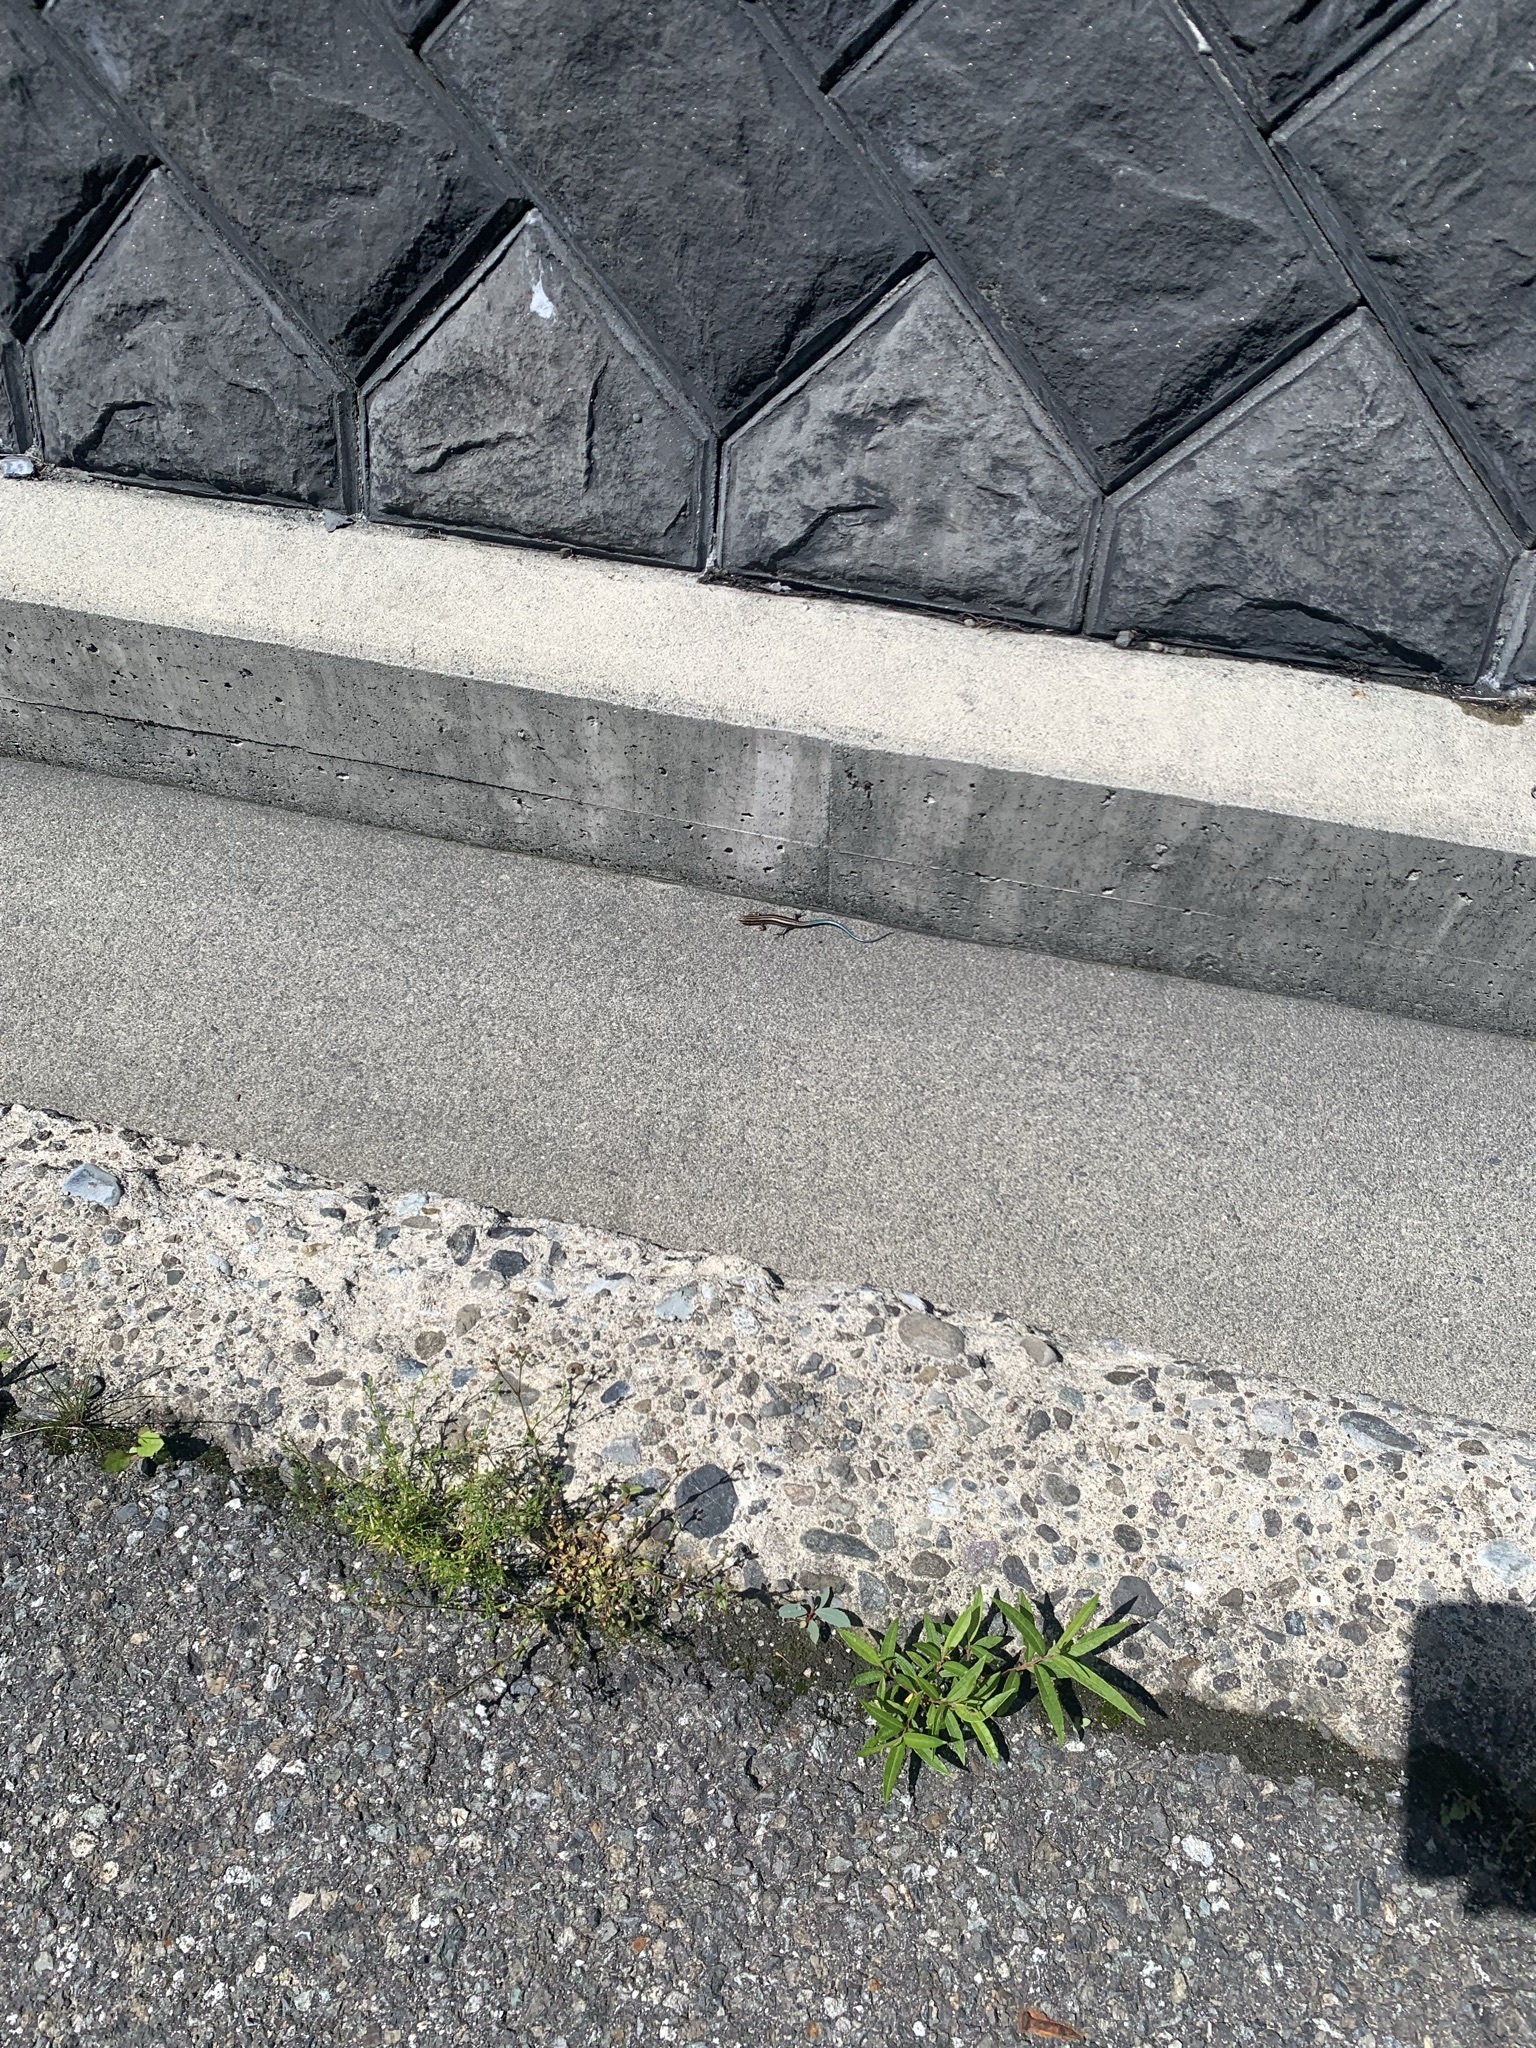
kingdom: Animalia
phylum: Chordata
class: Squamata
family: Scincidae
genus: Plestiodon
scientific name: Plestiodon finitimus
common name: Far eastern skink
